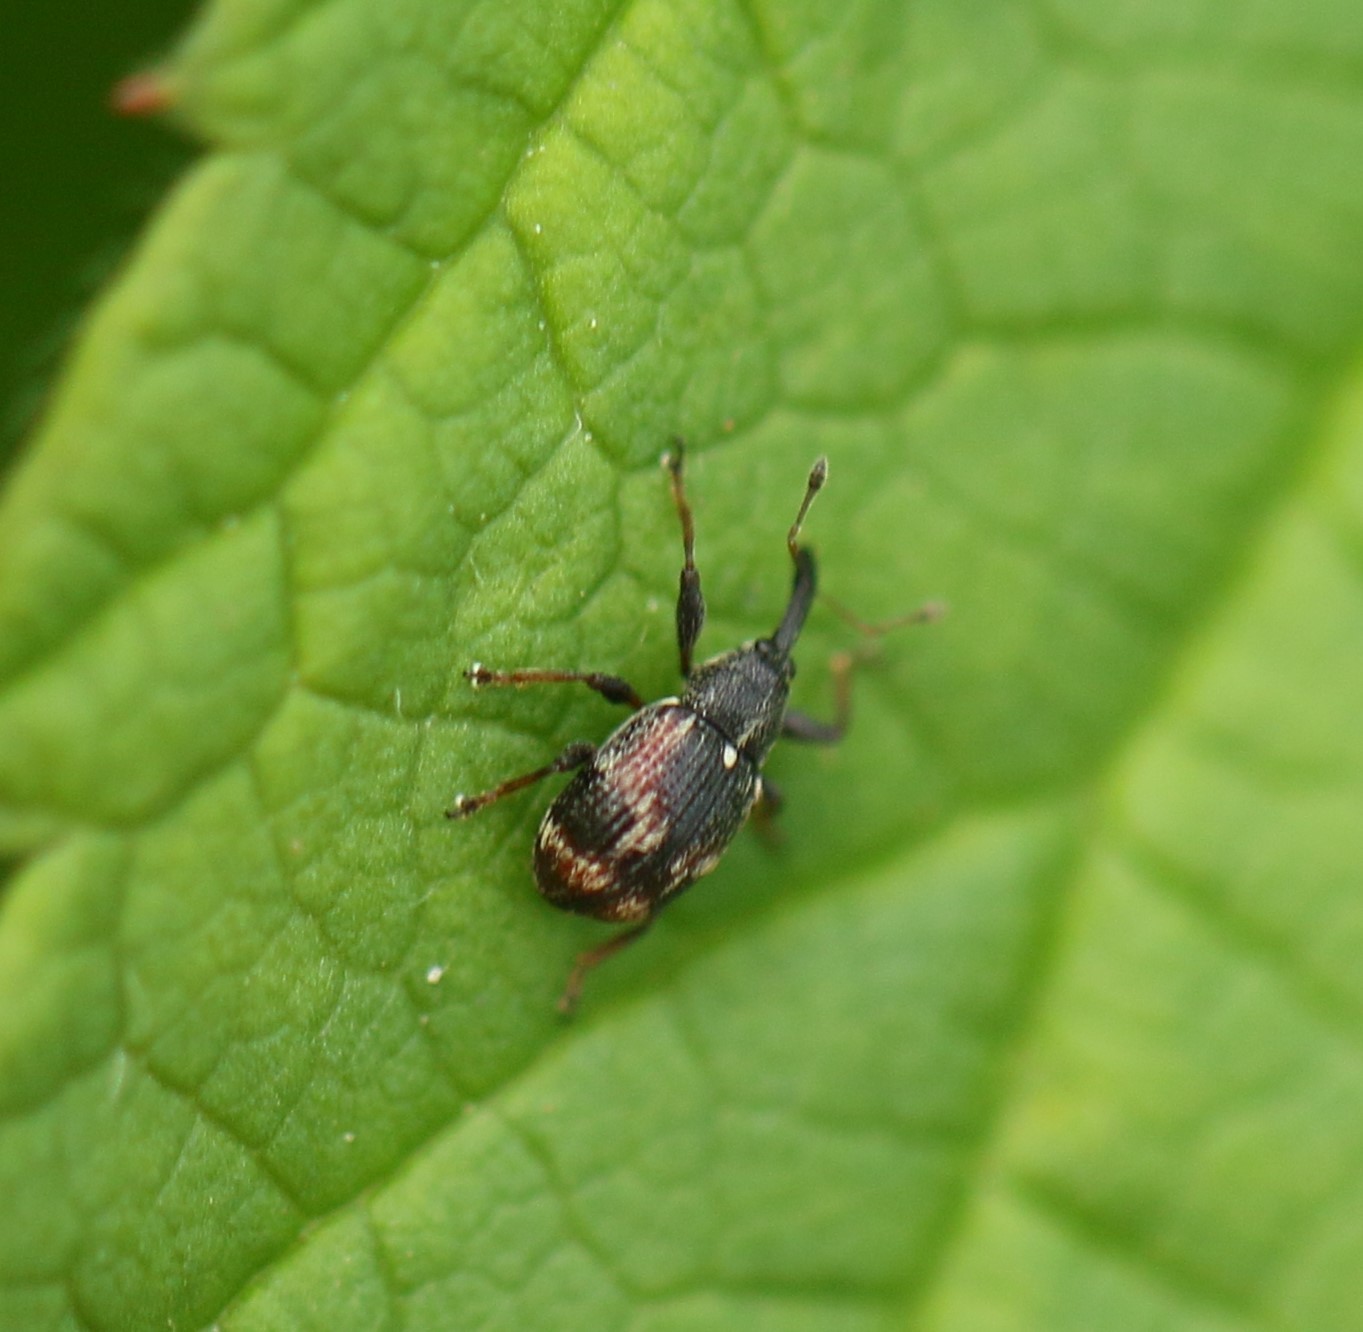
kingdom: Animalia
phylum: Arthropoda
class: Insecta
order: Coleoptera
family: Curculionidae
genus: Anthonomus
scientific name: Anthonomus signatus
